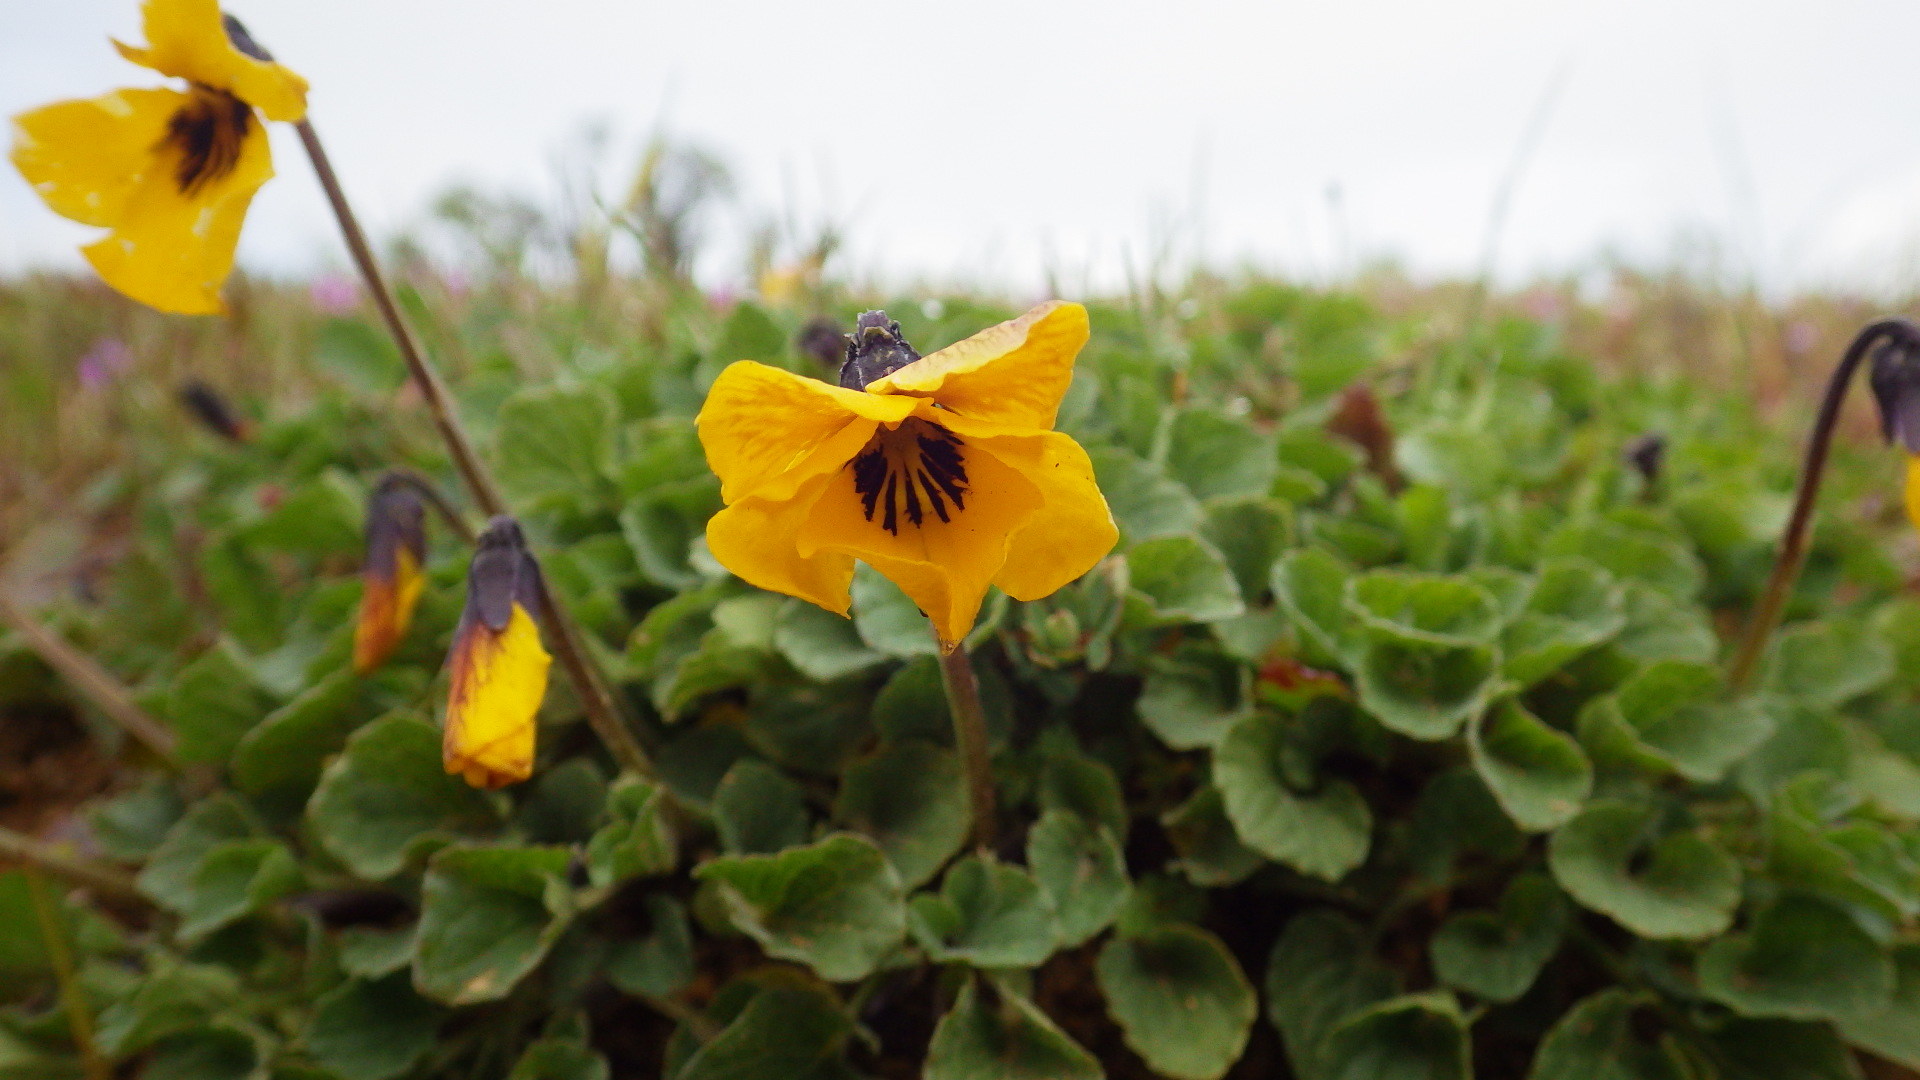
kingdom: Plantae
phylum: Tracheophyta
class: Magnoliopsida
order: Malpighiales
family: Violaceae
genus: Viola
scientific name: Viola pedunculata
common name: California golden violet
